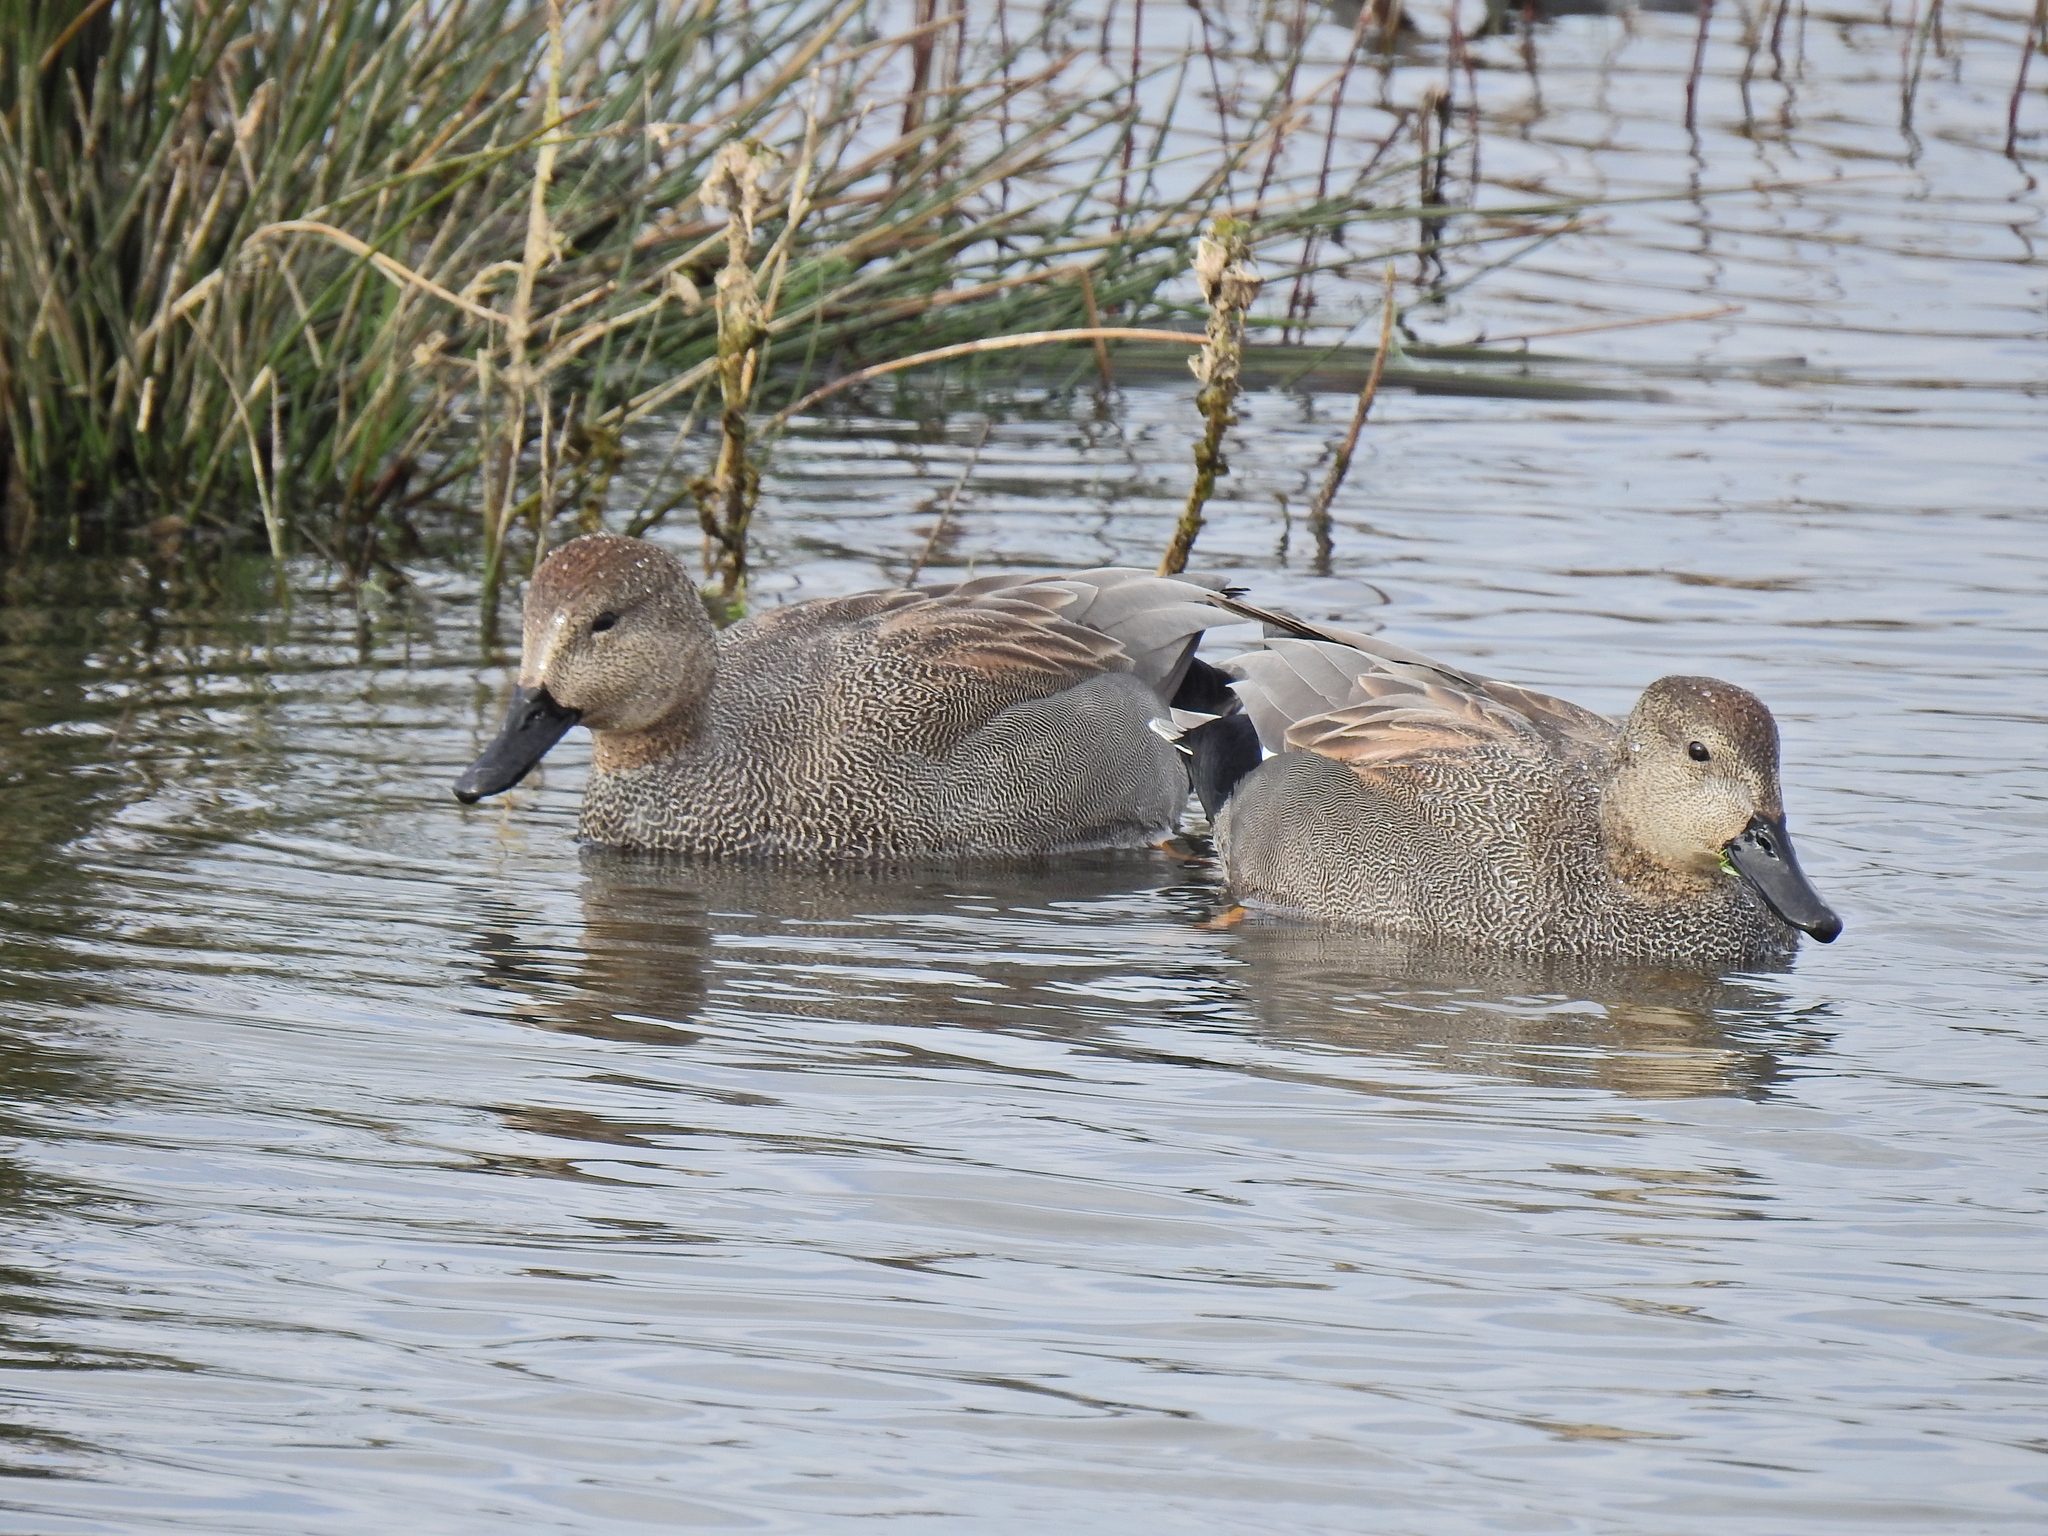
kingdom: Animalia
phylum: Chordata
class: Aves
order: Anseriformes
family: Anatidae
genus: Mareca
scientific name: Mareca strepera
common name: Gadwall
